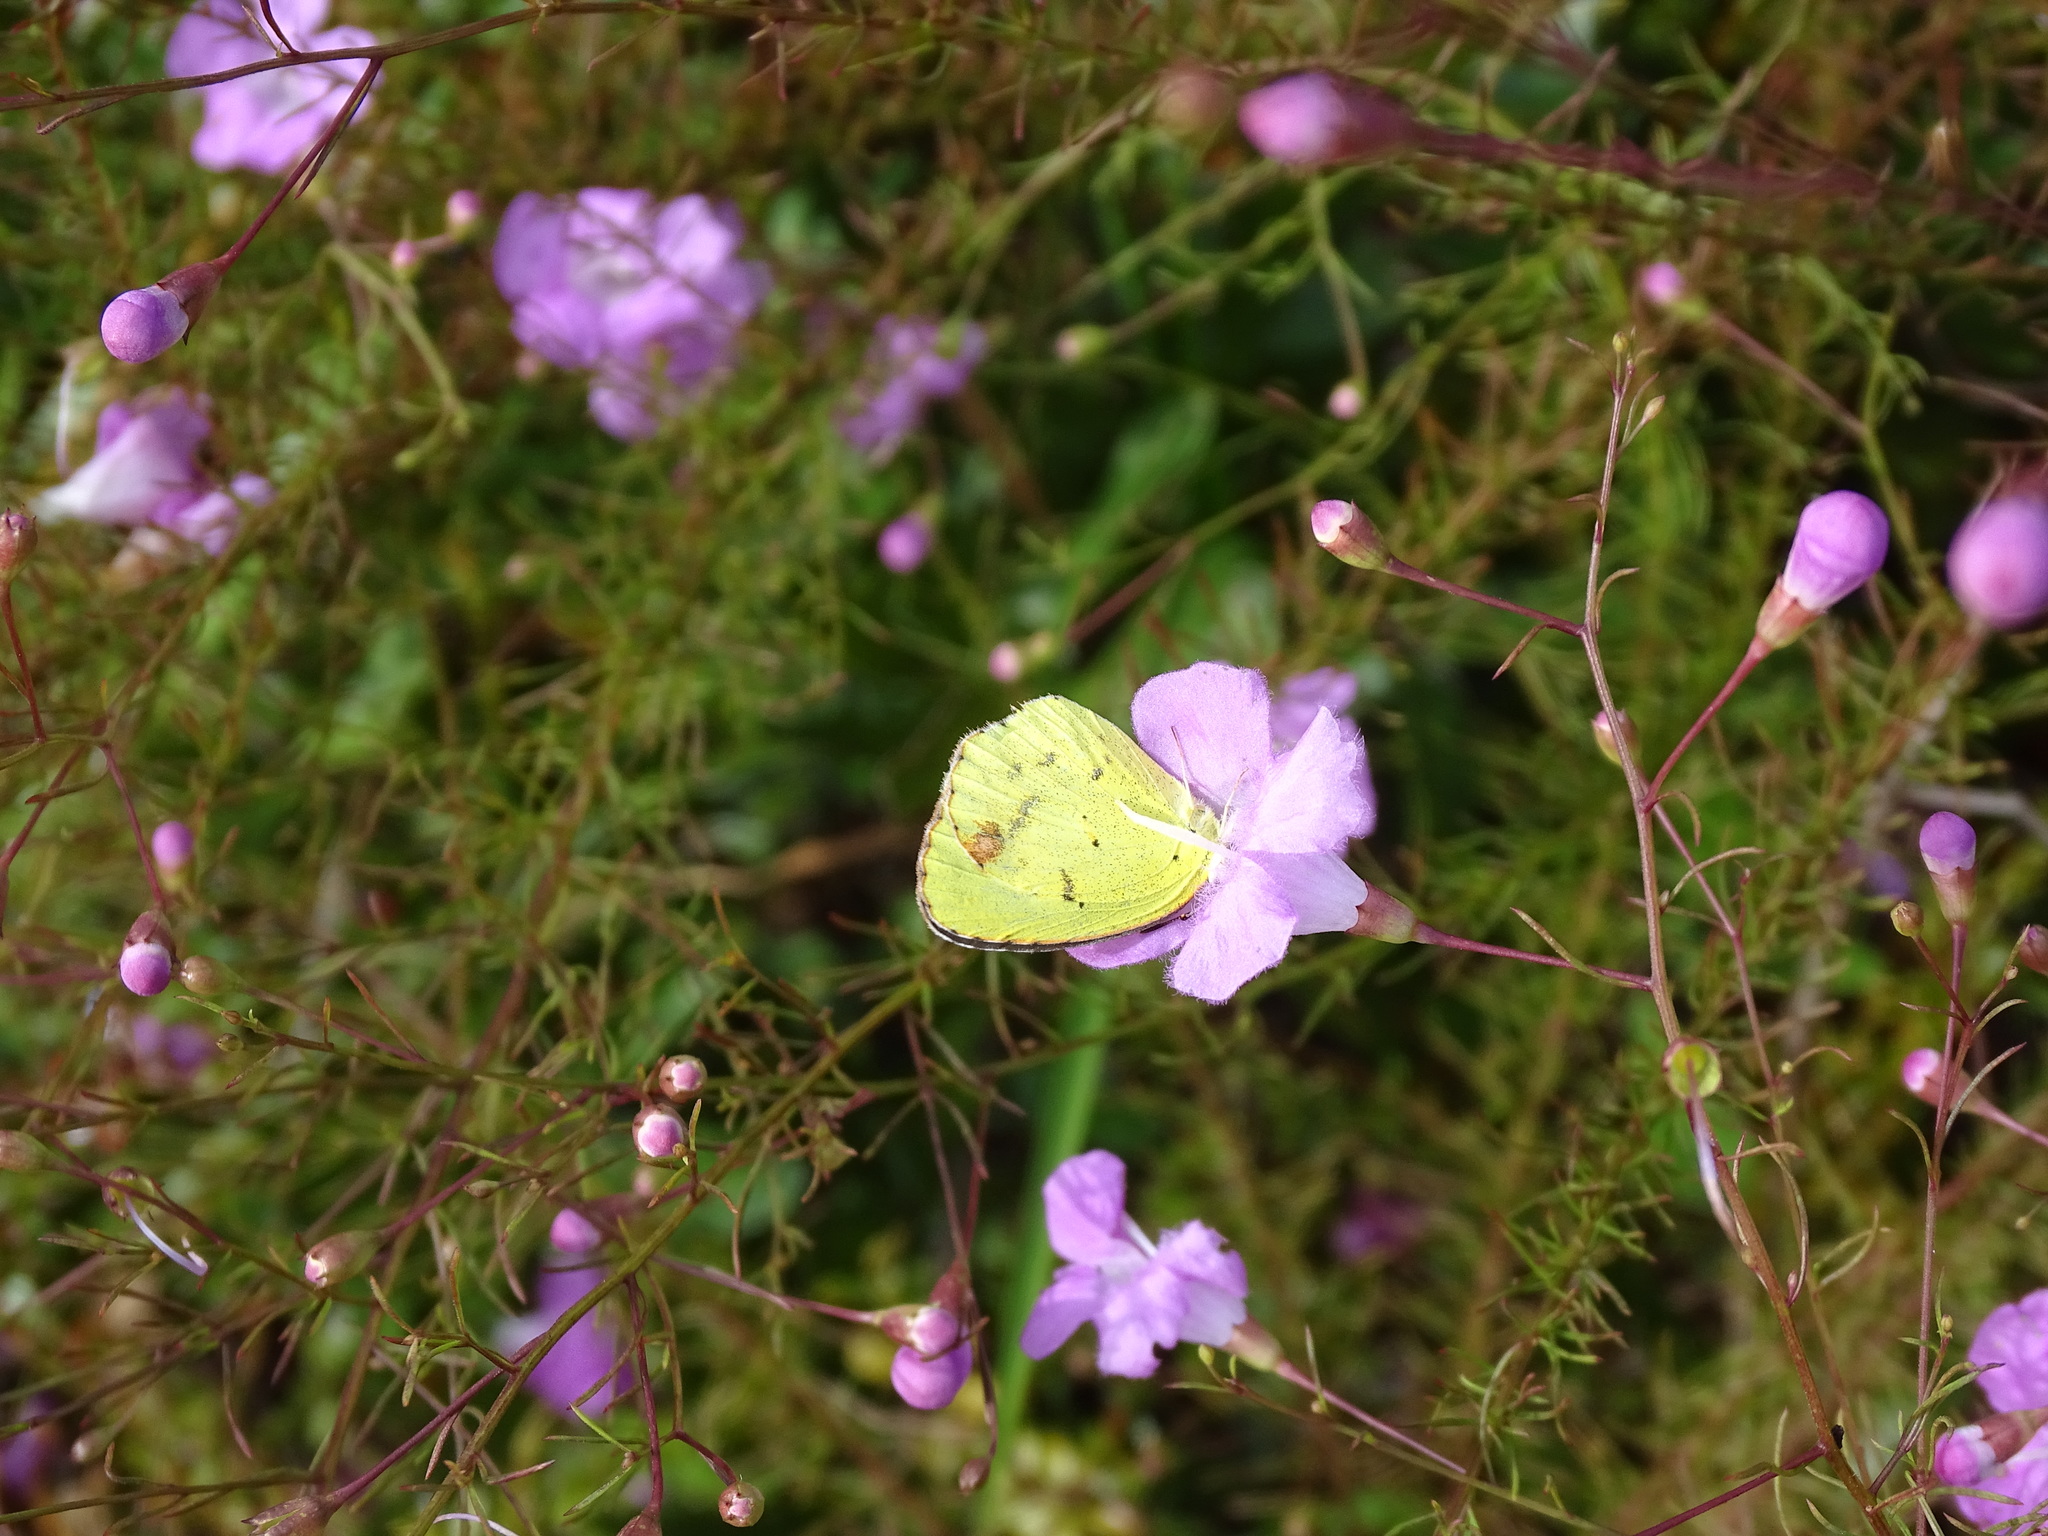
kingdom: Animalia
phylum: Arthropoda
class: Insecta
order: Lepidoptera
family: Pieridae
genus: Pyrisitia
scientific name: Pyrisitia lisa
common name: Little yellow
